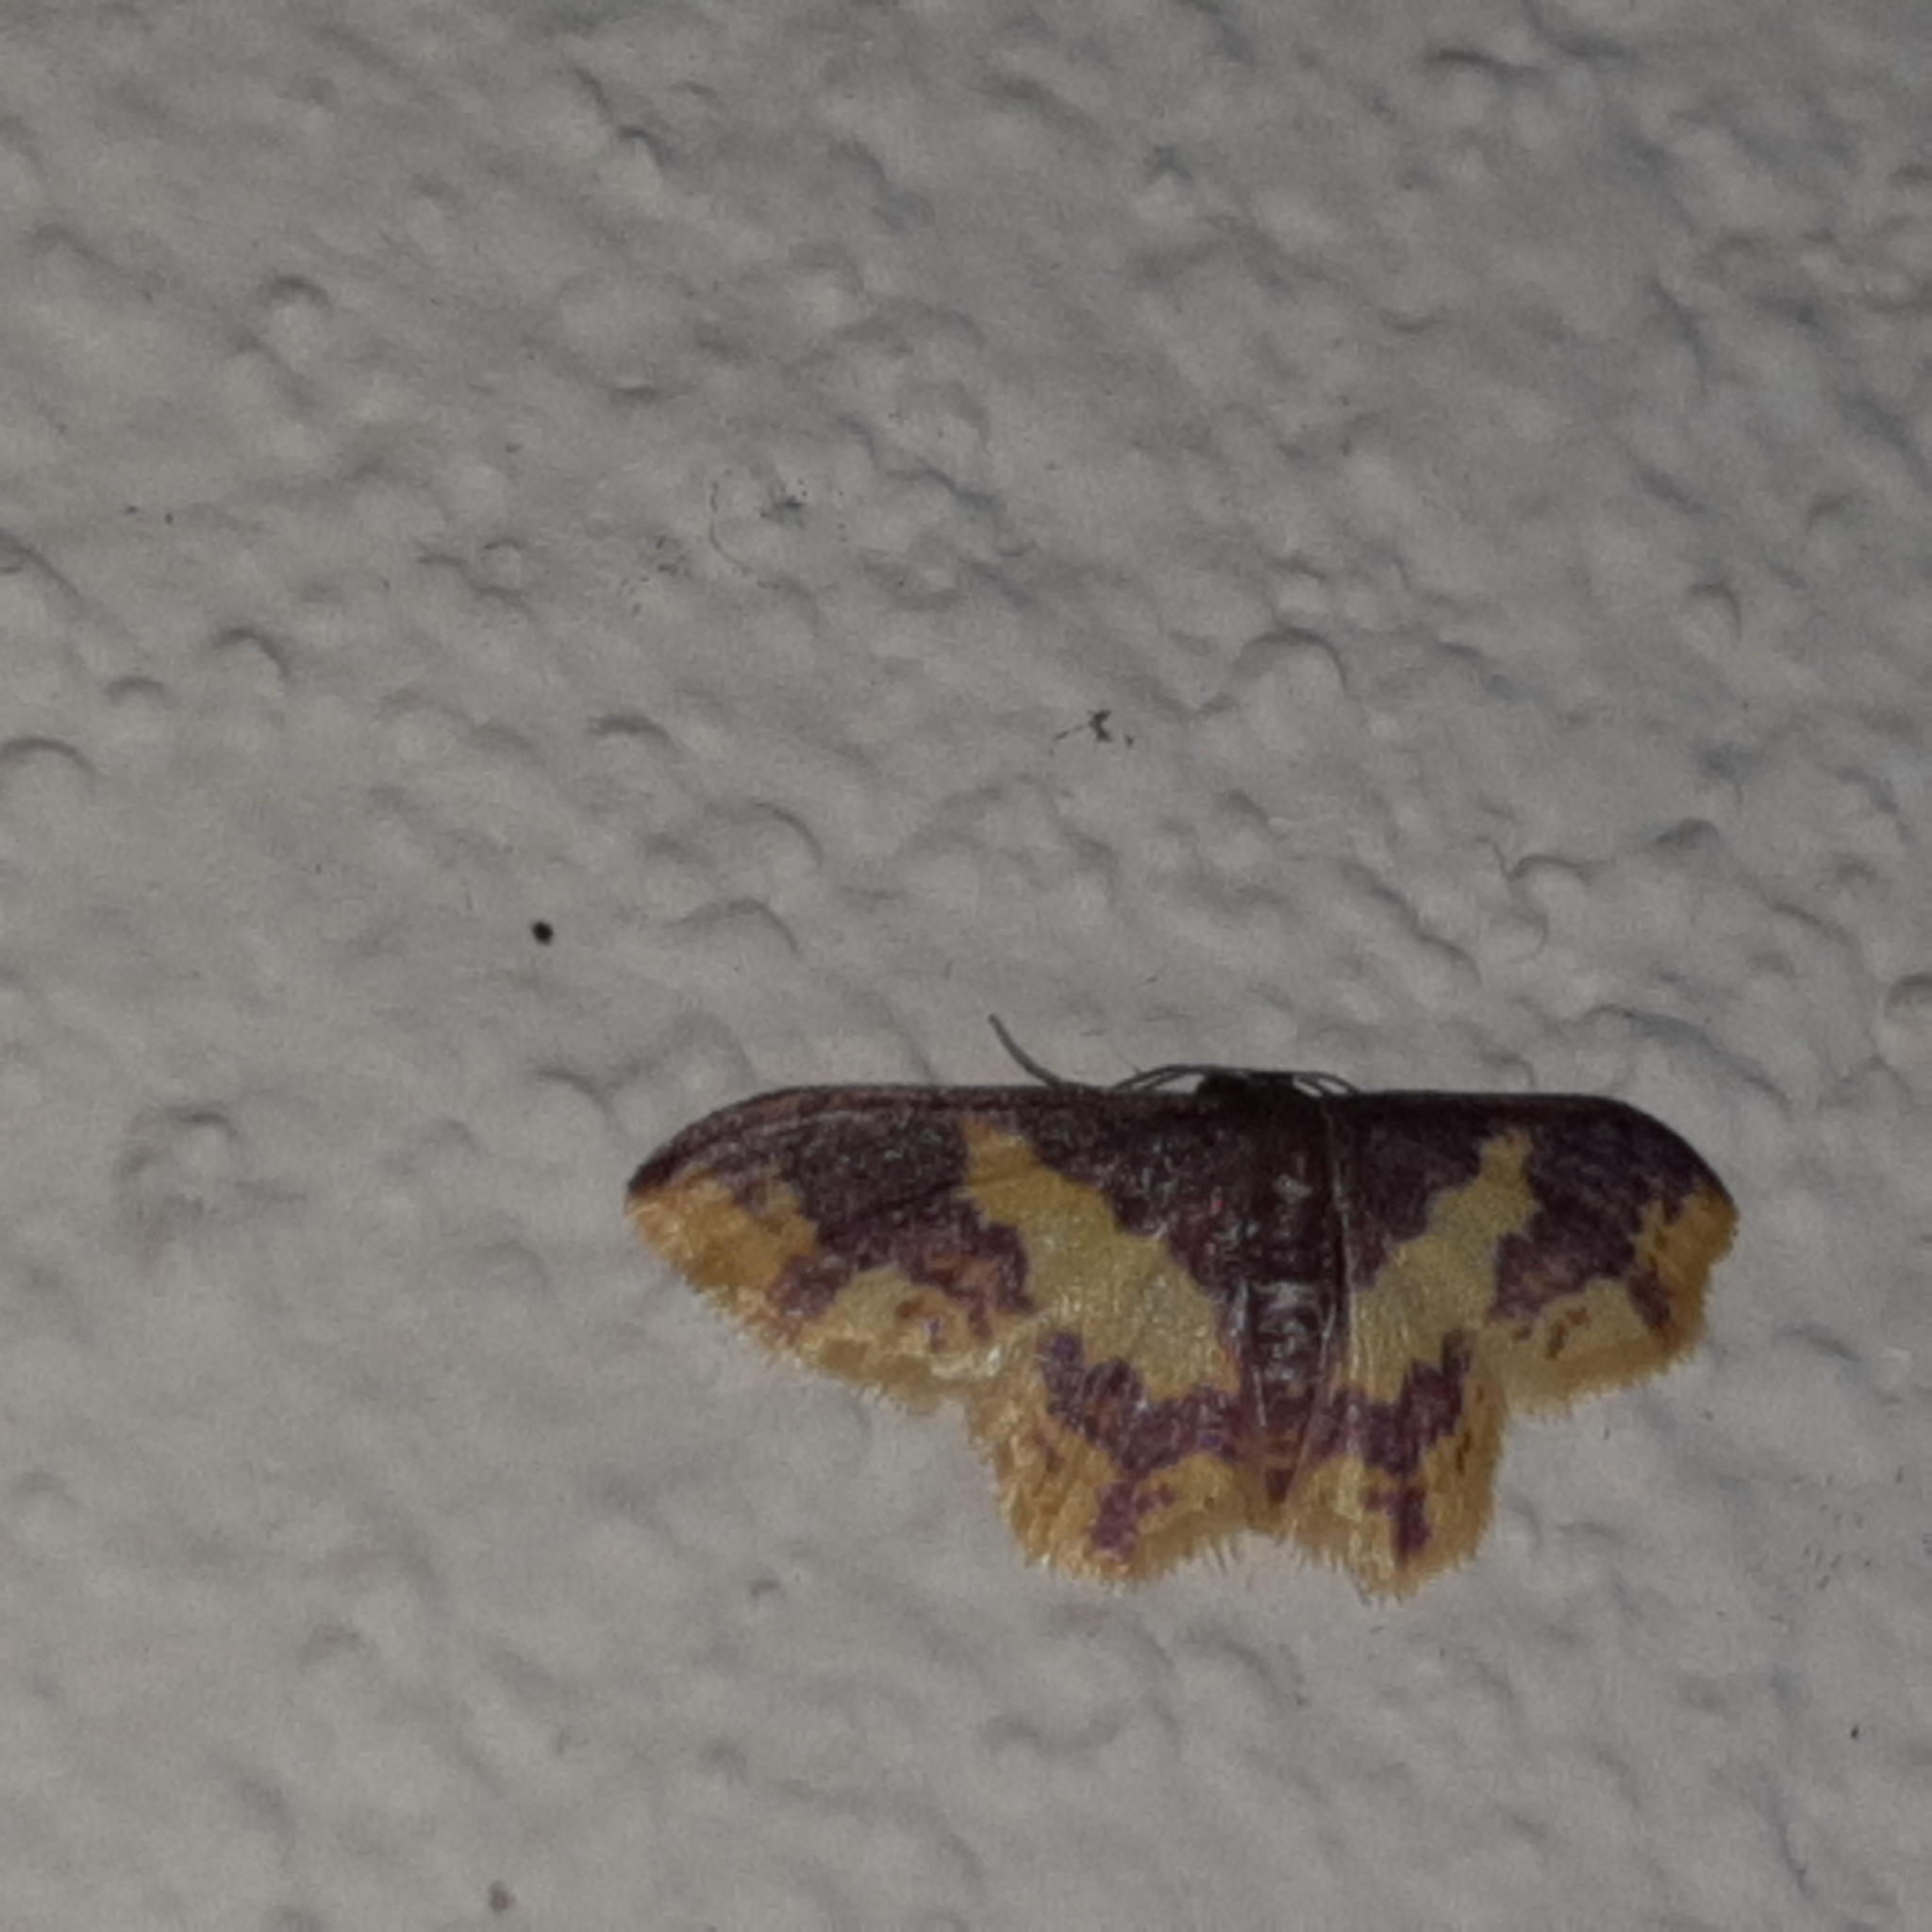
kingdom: Animalia
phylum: Arthropoda
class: Insecta
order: Lepidoptera
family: Geometridae
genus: Tricentrogyna
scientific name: Tricentrogyna violescens
